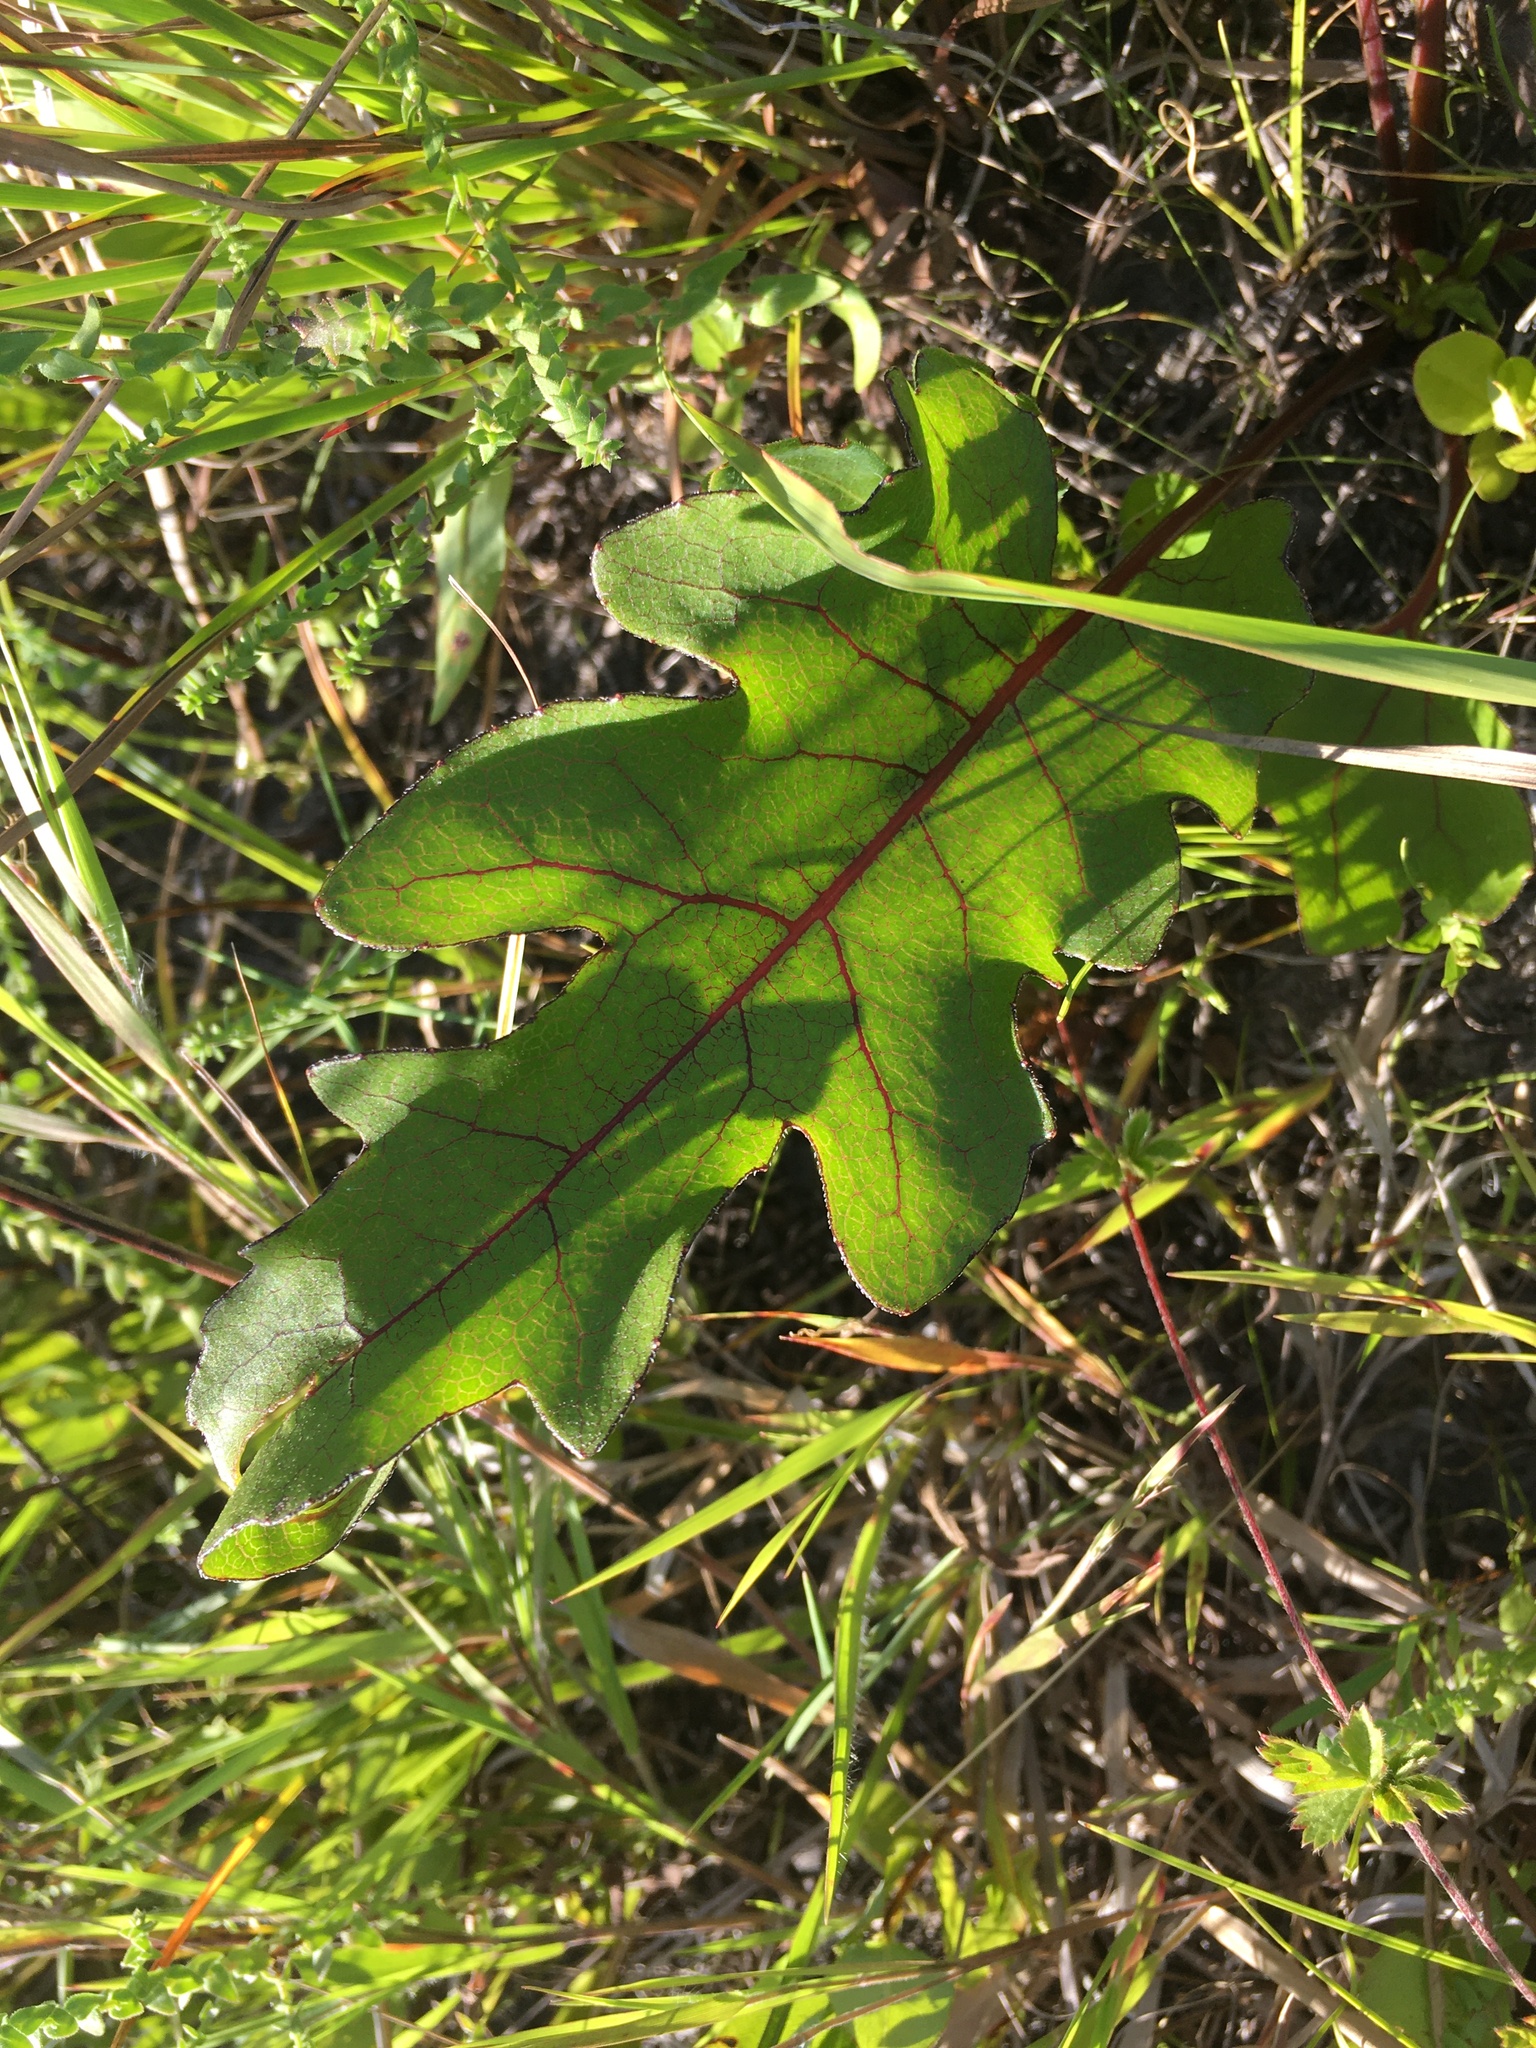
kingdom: Plantae
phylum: Tracheophyta
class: Magnoliopsida
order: Asterales
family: Asteraceae
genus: Silphium
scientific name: Silphium compositum
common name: Lesser basal-leaf rosinweed
